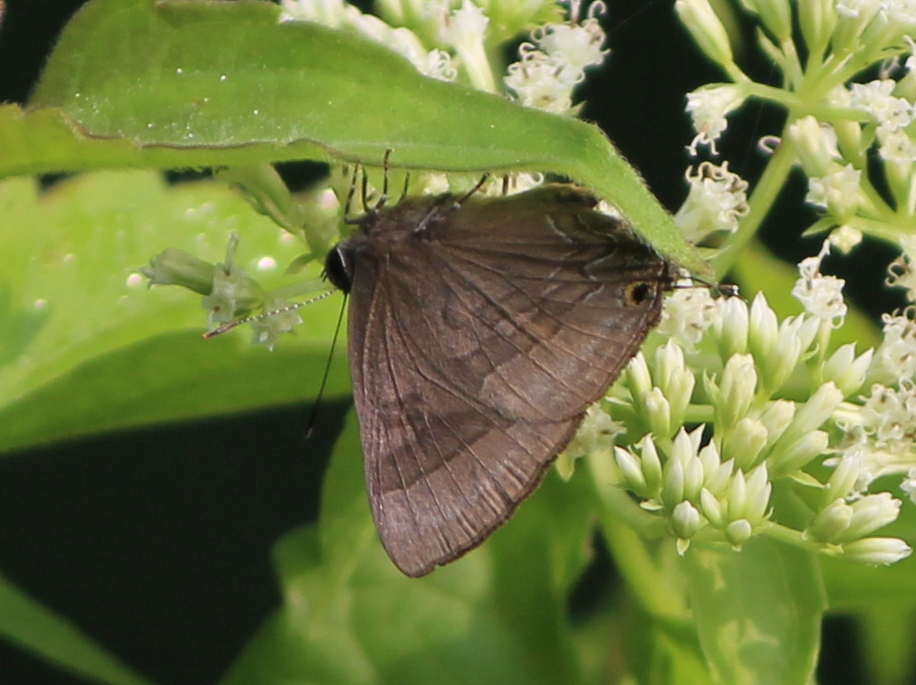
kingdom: Animalia
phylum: Arthropoda
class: Insecta
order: Lepidoptera
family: Lycaenidae
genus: Rapala
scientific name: Rapala varuna
